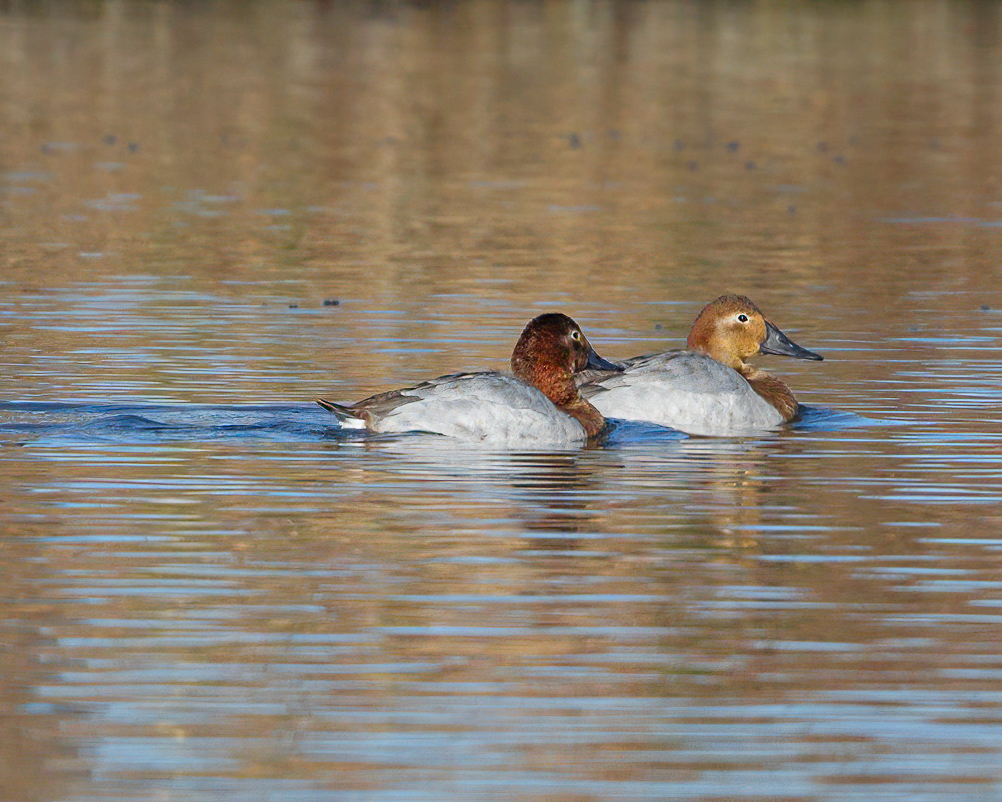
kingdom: Animalia
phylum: Chordata
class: Aves
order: Anseriformes
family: Anatidae
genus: Aythya
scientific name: Aythya valisineria
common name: Canvasback
